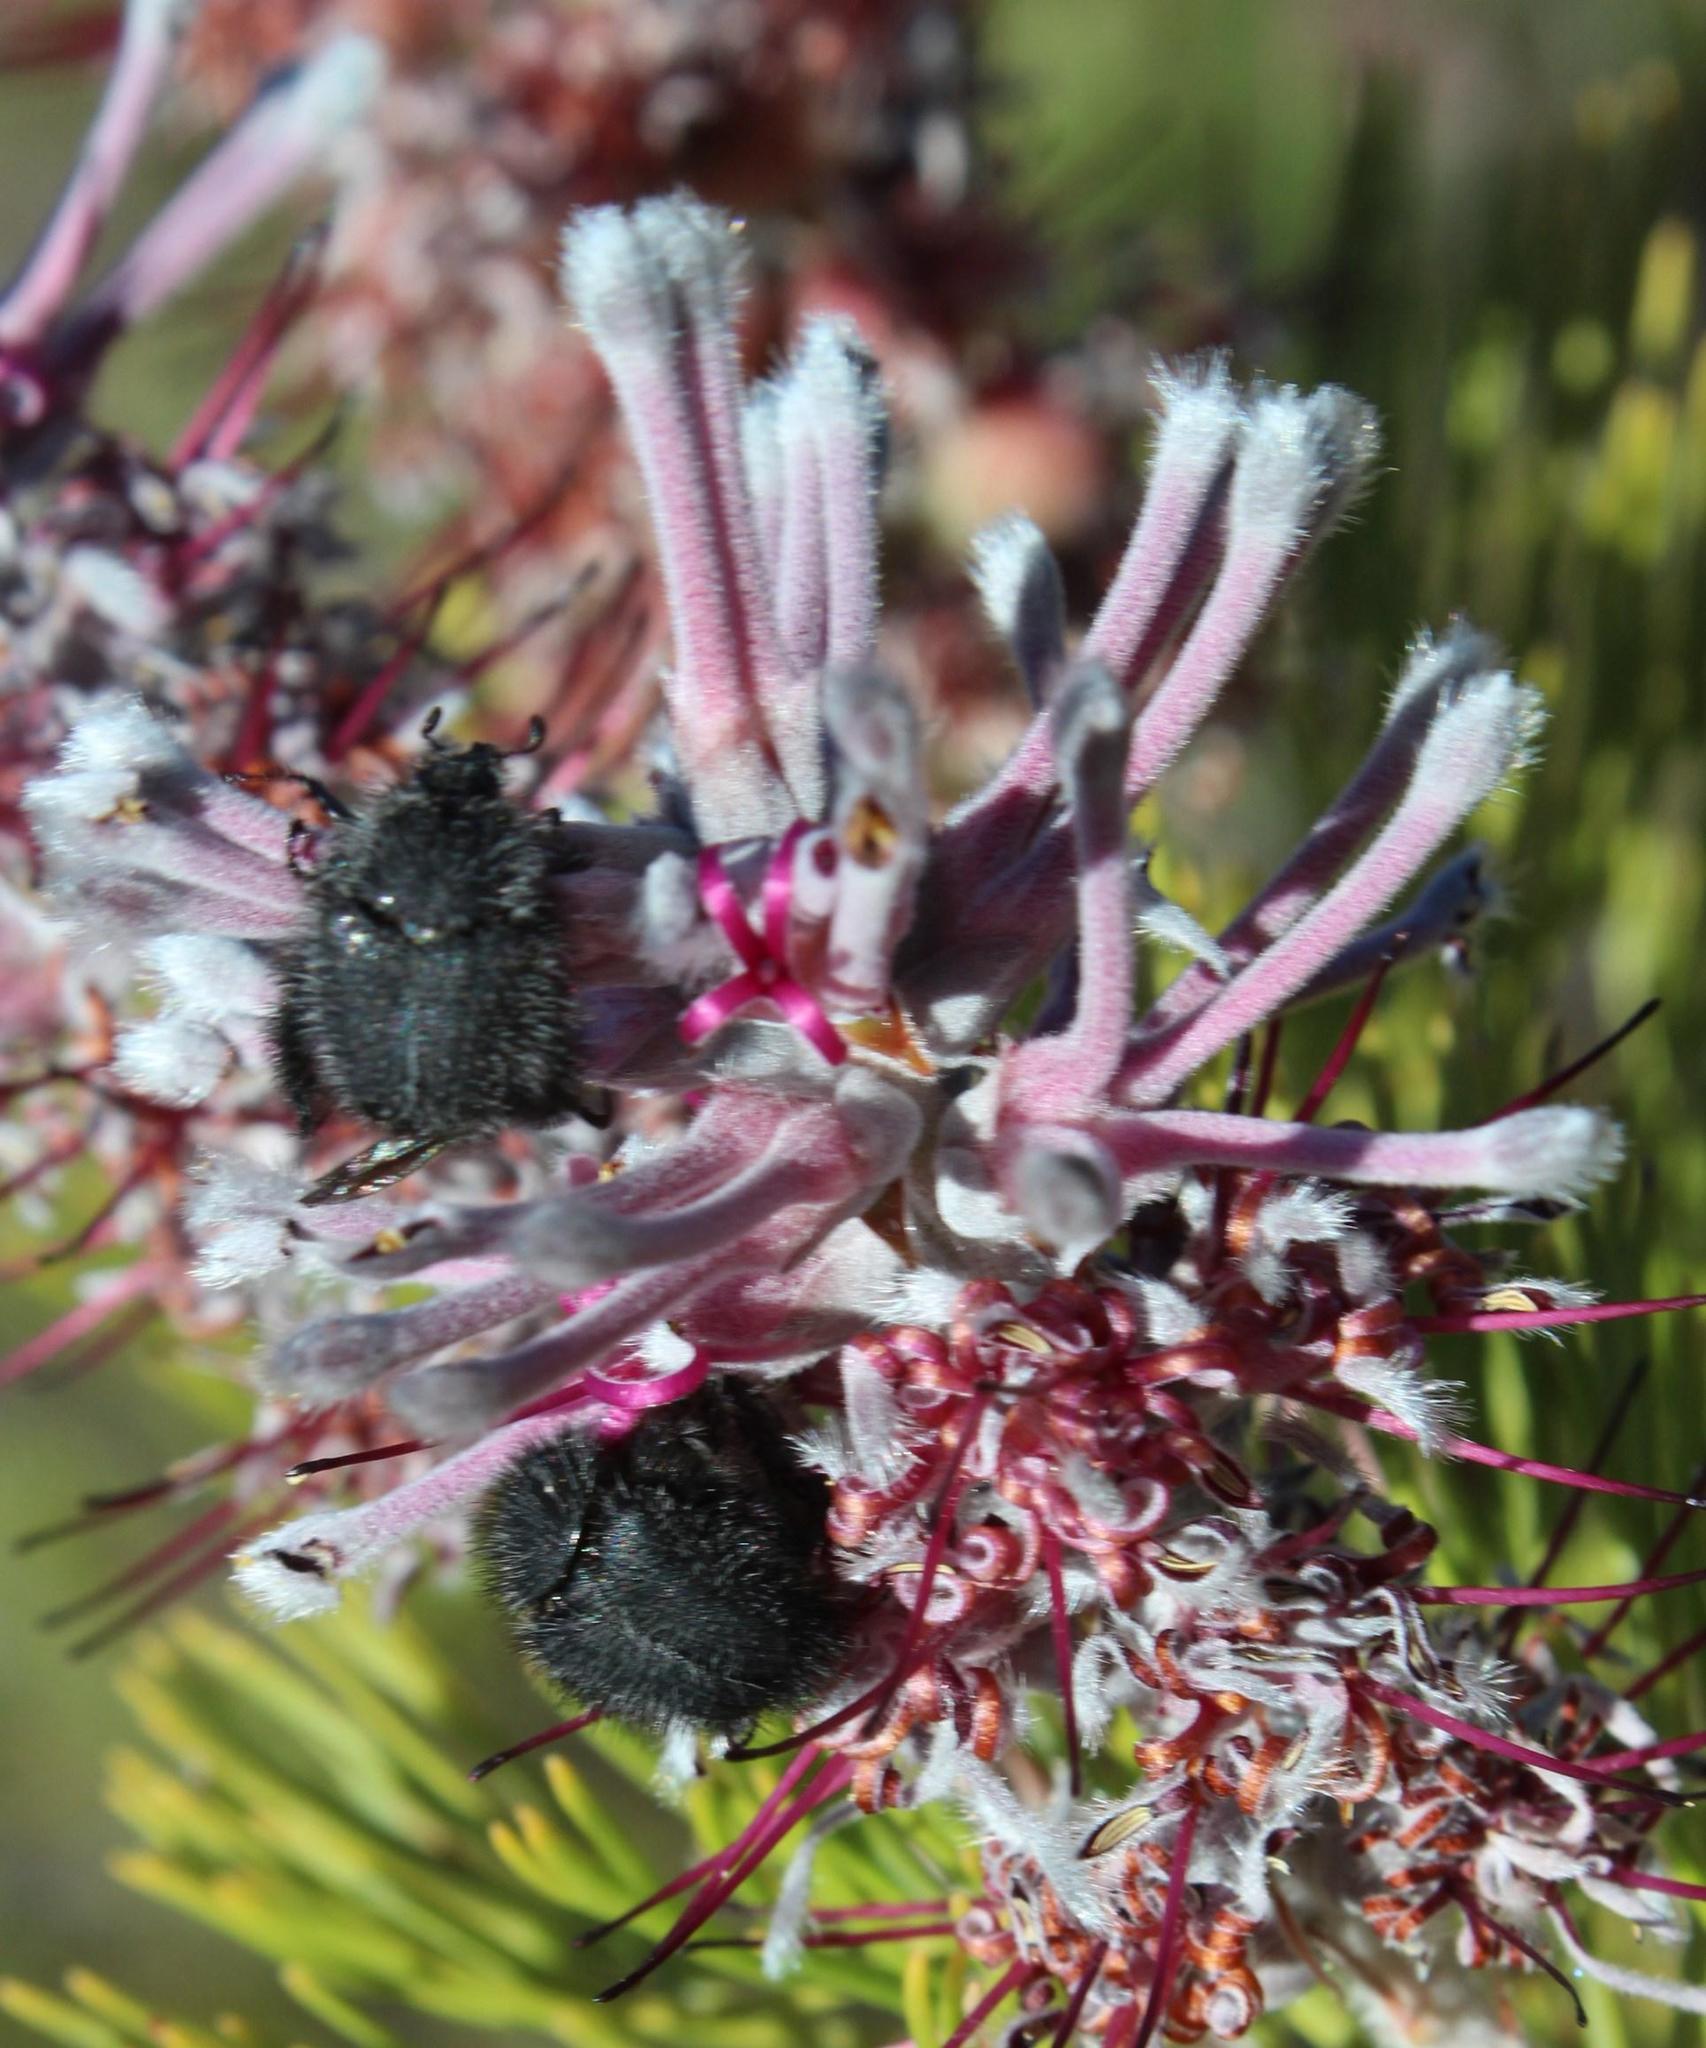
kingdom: Plantae
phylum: Tracheophyta
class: Magnoliopsida
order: Proteales
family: Proteaceae
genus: Paranomus
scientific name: Paranomus bracteolaris
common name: Bokkeveld tree sceptre
